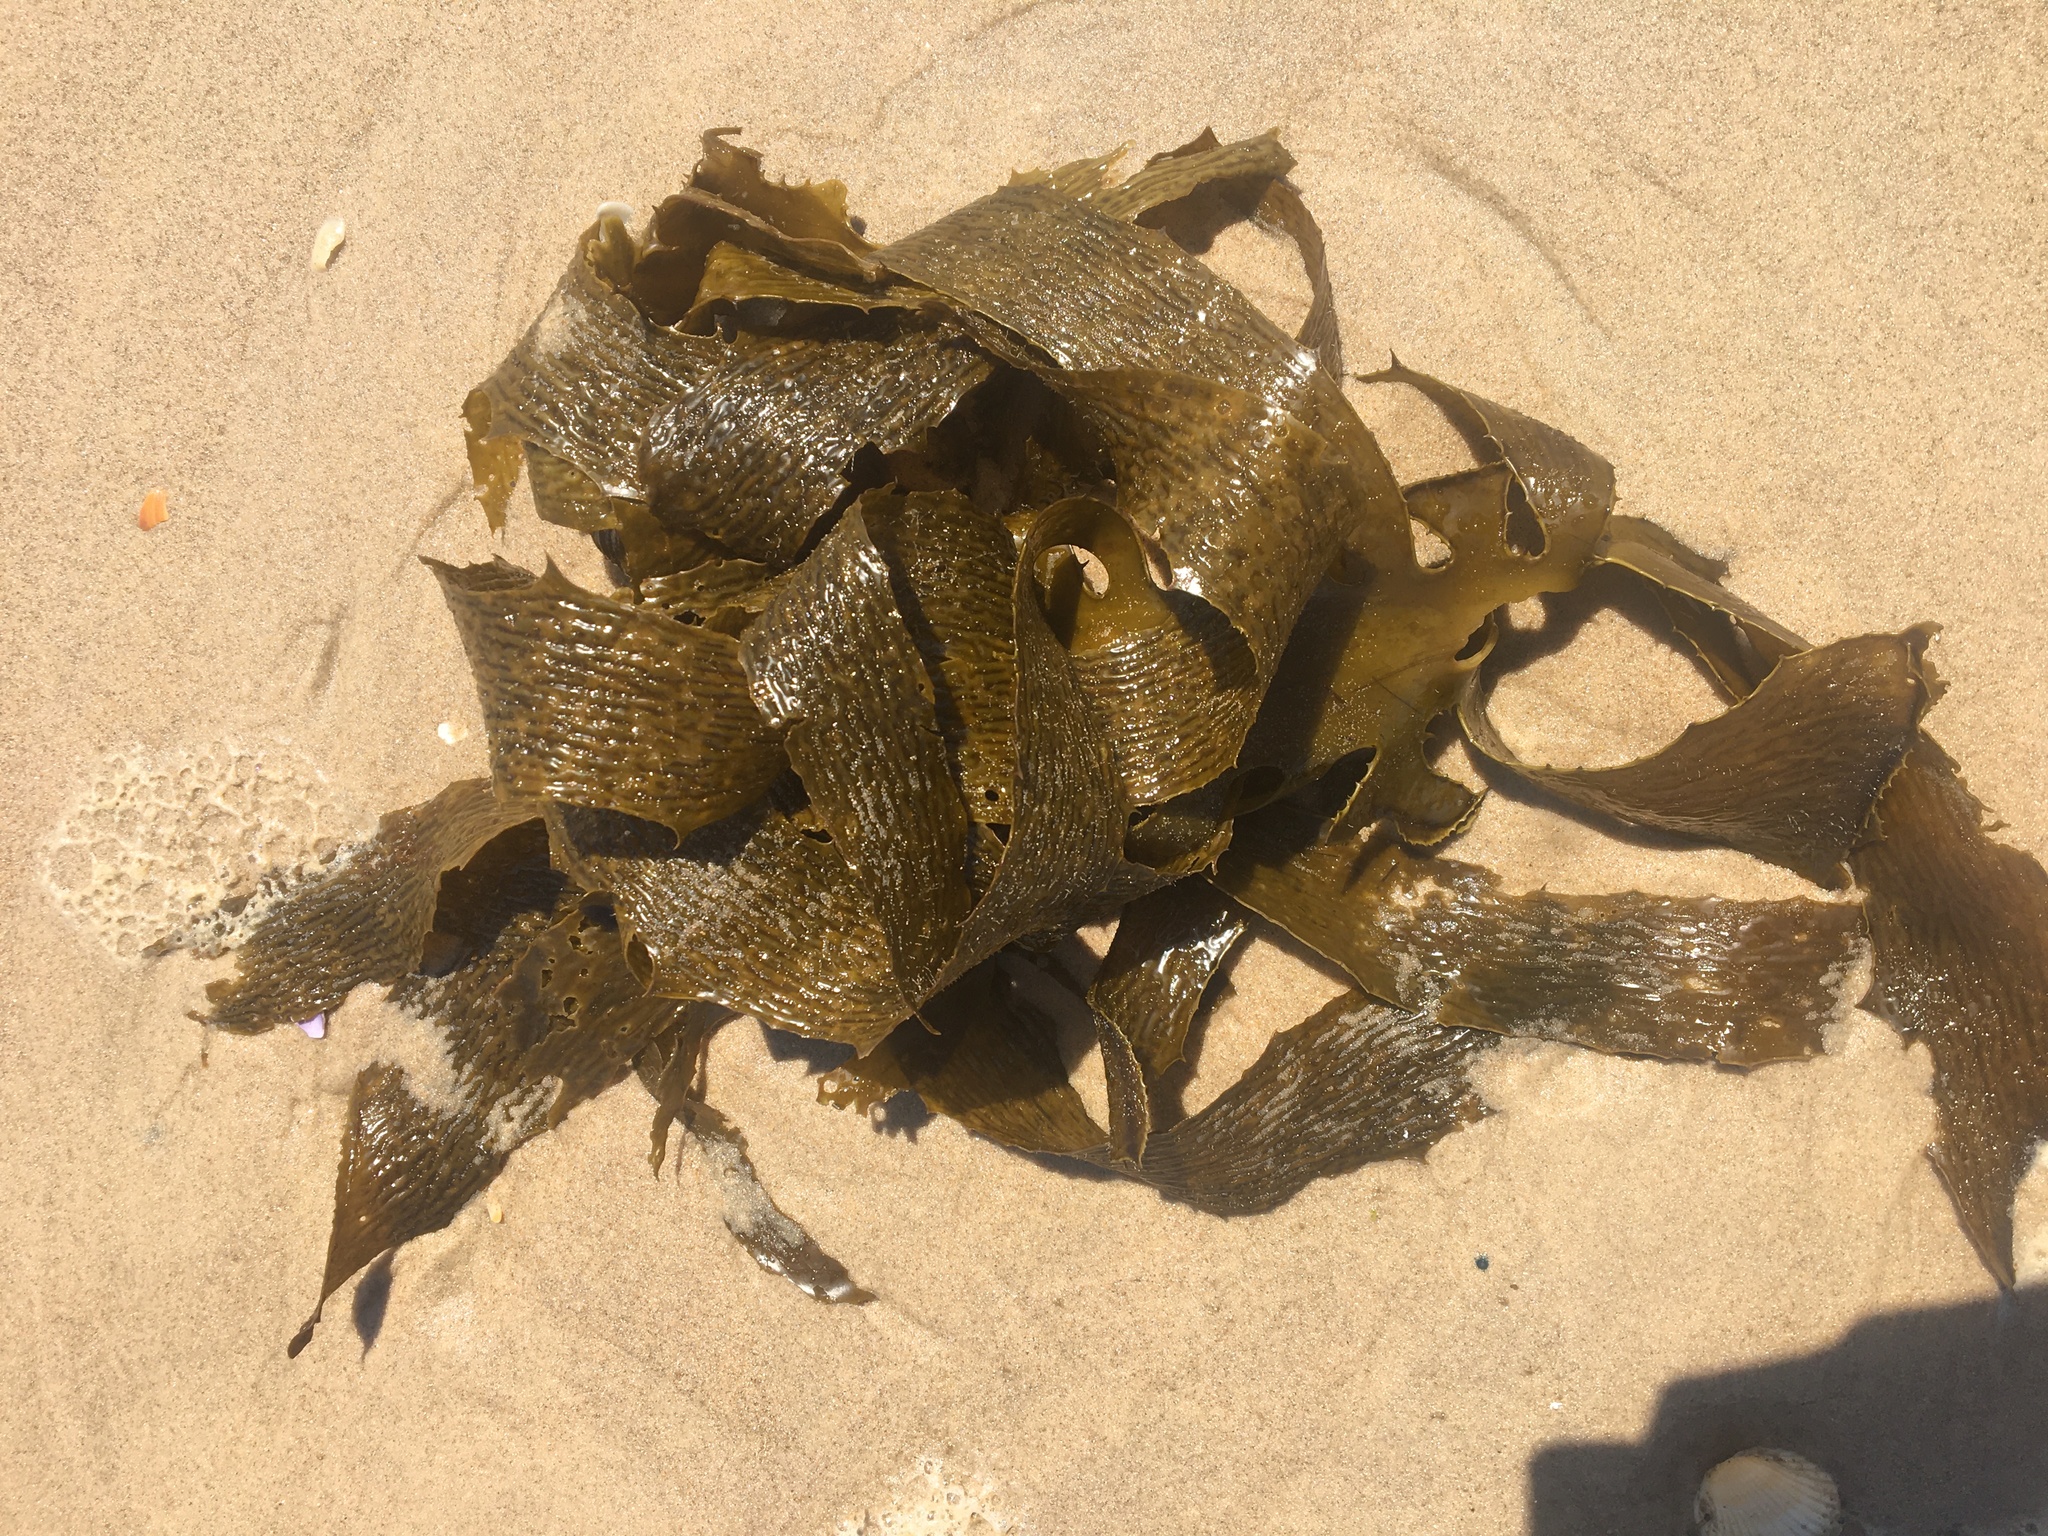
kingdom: Chromista
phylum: Ochrophyta
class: Phaeophyceae
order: Laminariales
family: Lessoniaceae
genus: Ecklonia
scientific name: Ecklonia radiata
